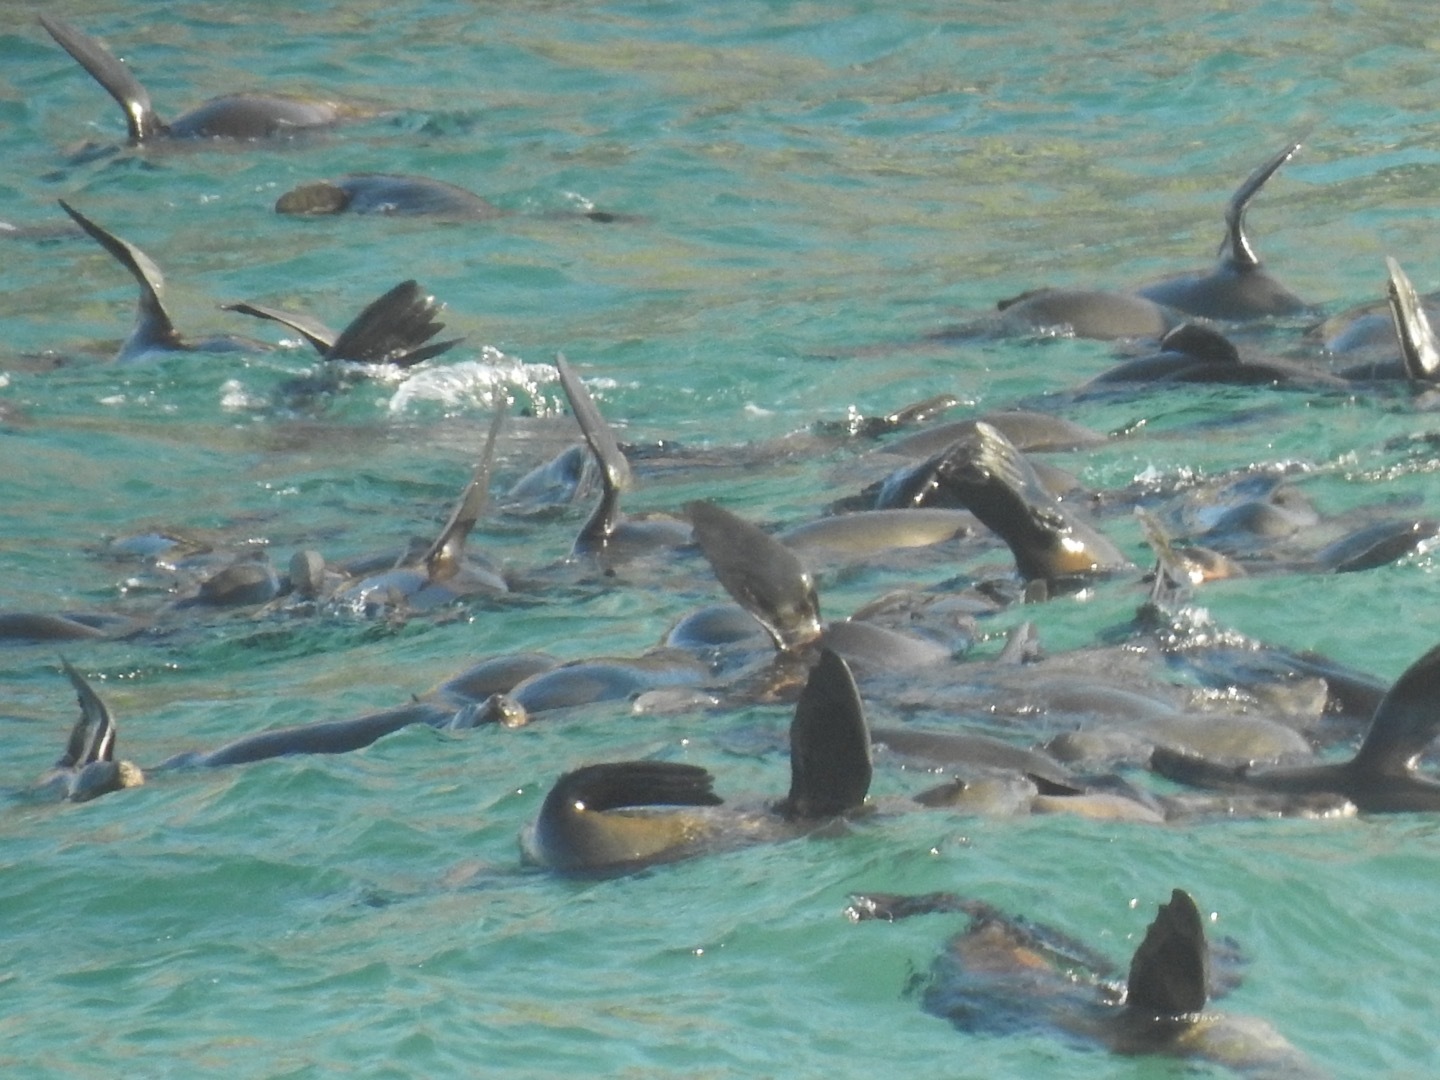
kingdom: Animalia
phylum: Chordata
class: Mammalia
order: Carnivora
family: Otariidae
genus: Arctocephalus
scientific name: Arctocephalus pusillus
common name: Brown fur seal
